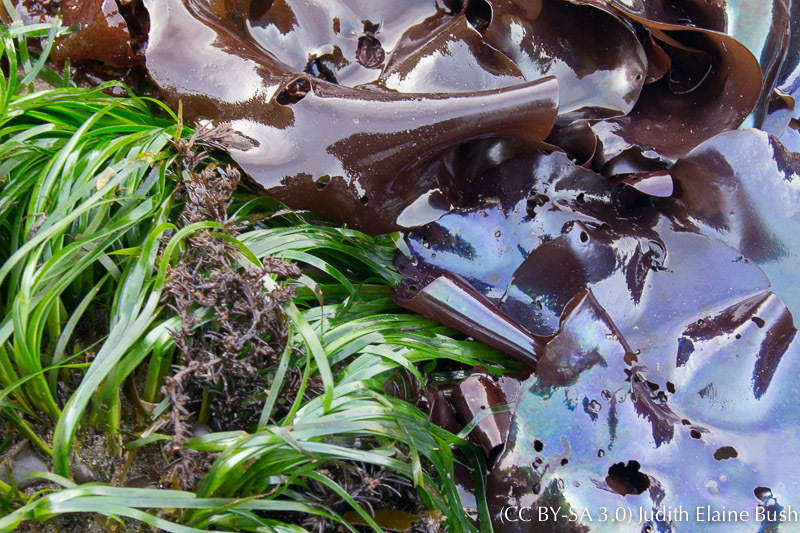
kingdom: Plantae
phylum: Tracheophyta
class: Liliopsida
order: Alismatales
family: Zosteraceae
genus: Phyllospadix
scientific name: Phyllospadix scouleri
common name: Species code: ps
